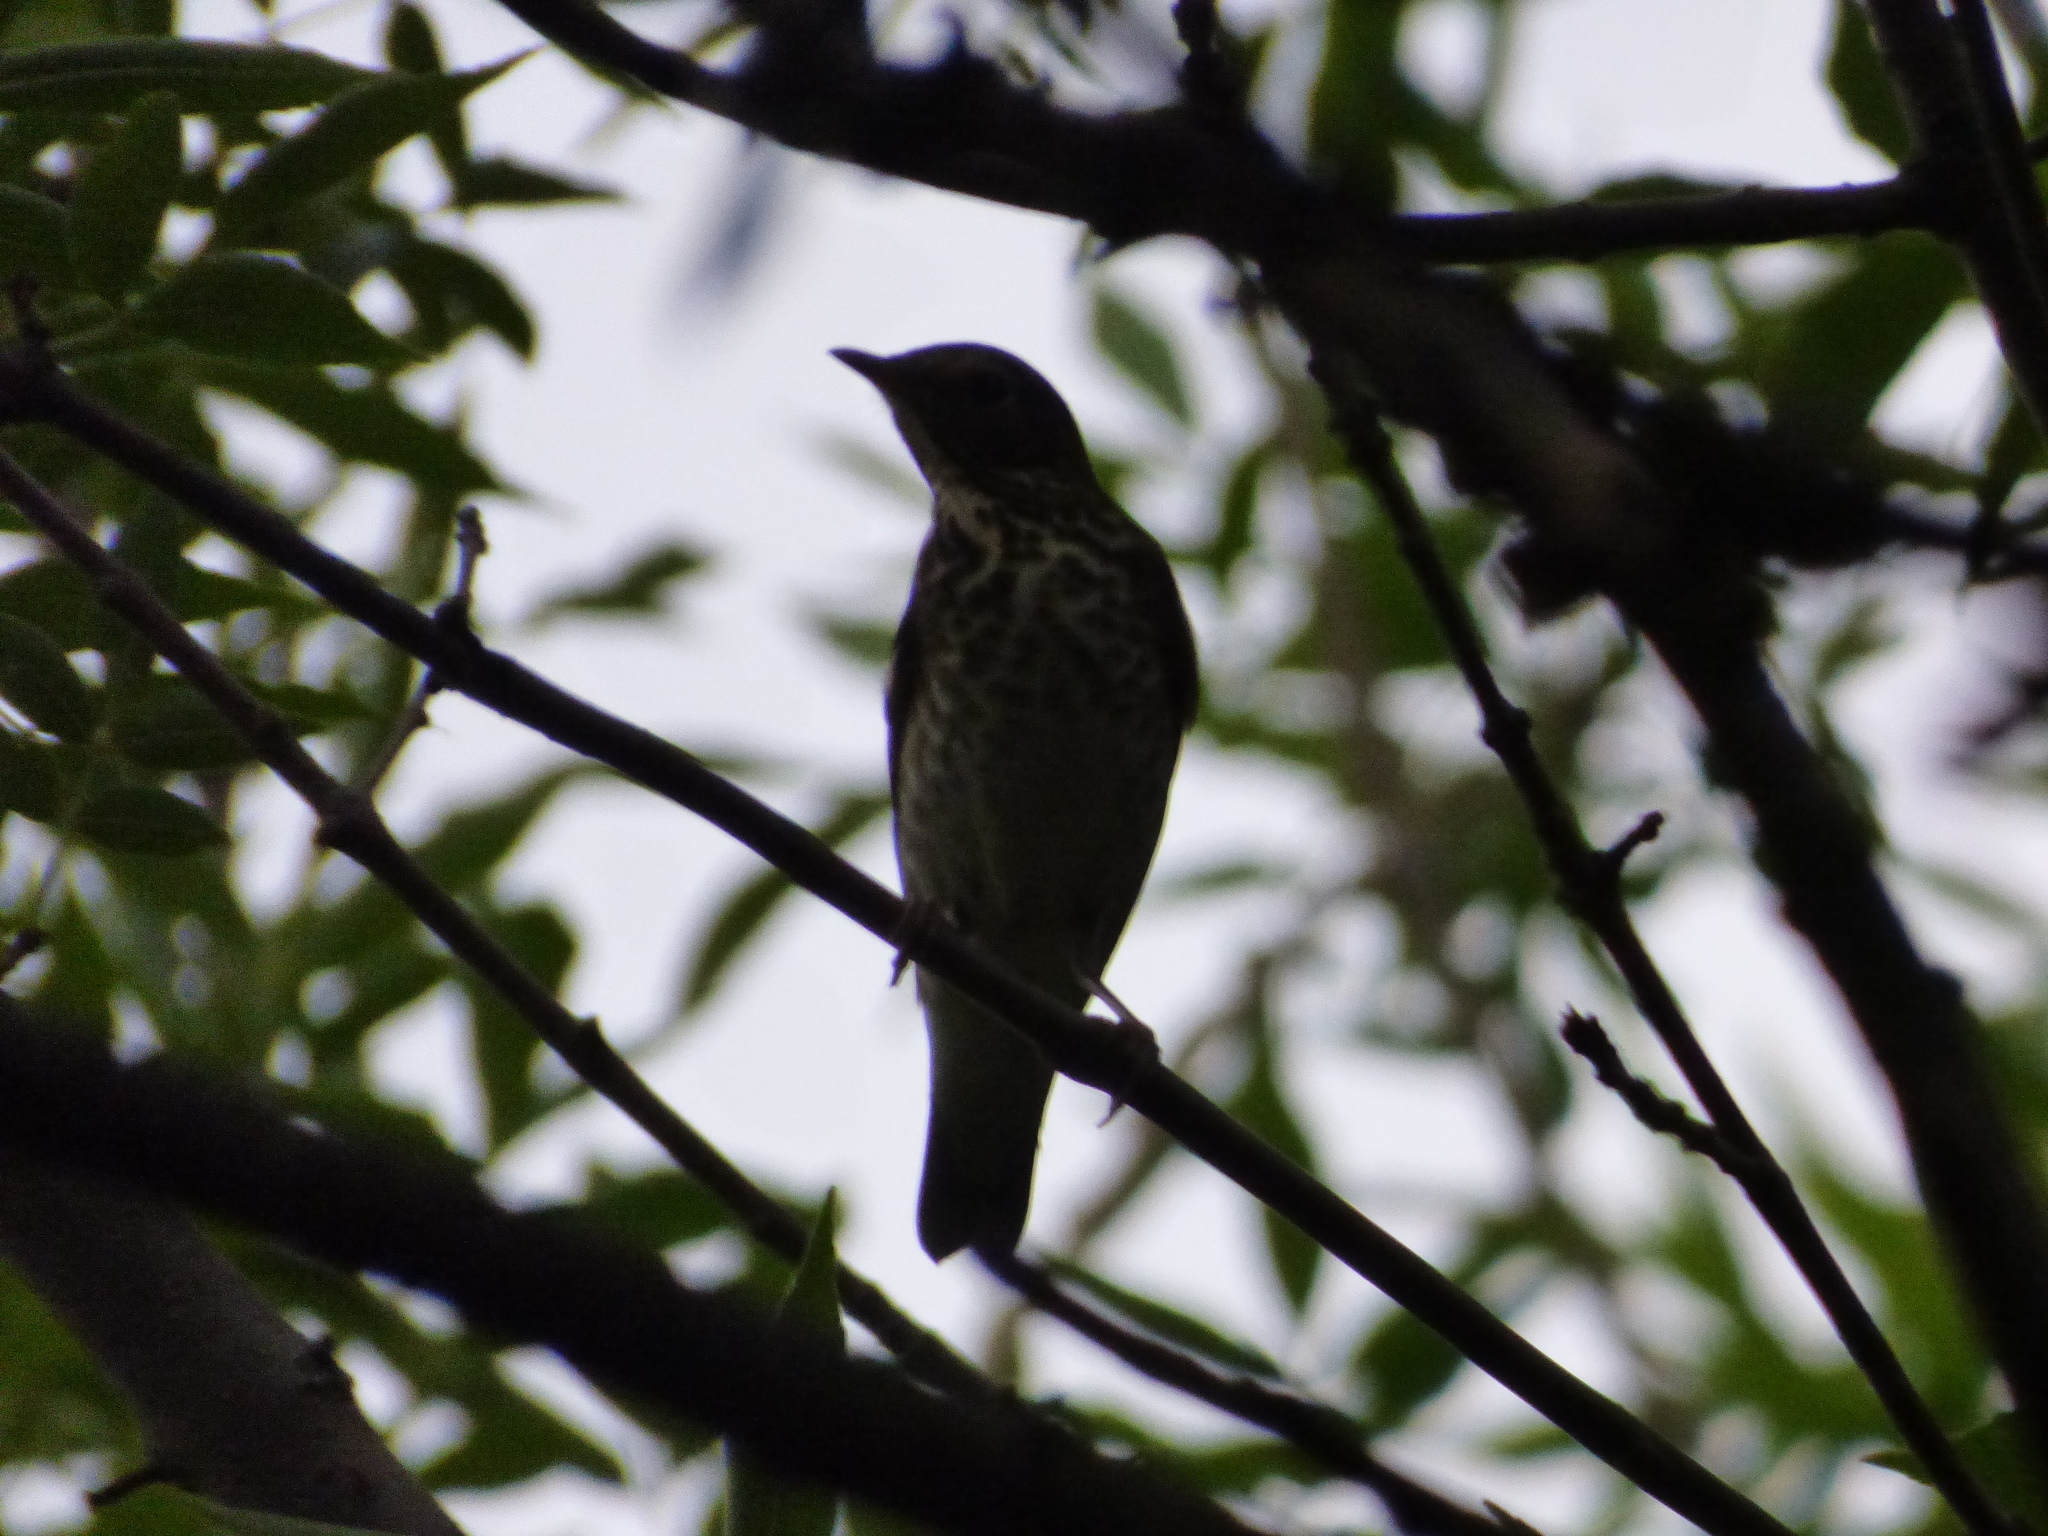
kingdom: Animalia
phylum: Chordata
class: Aves
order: Passeriformes
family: Turdidae
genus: Catharus
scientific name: Catharus ustulatus
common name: Swainson's thrush
